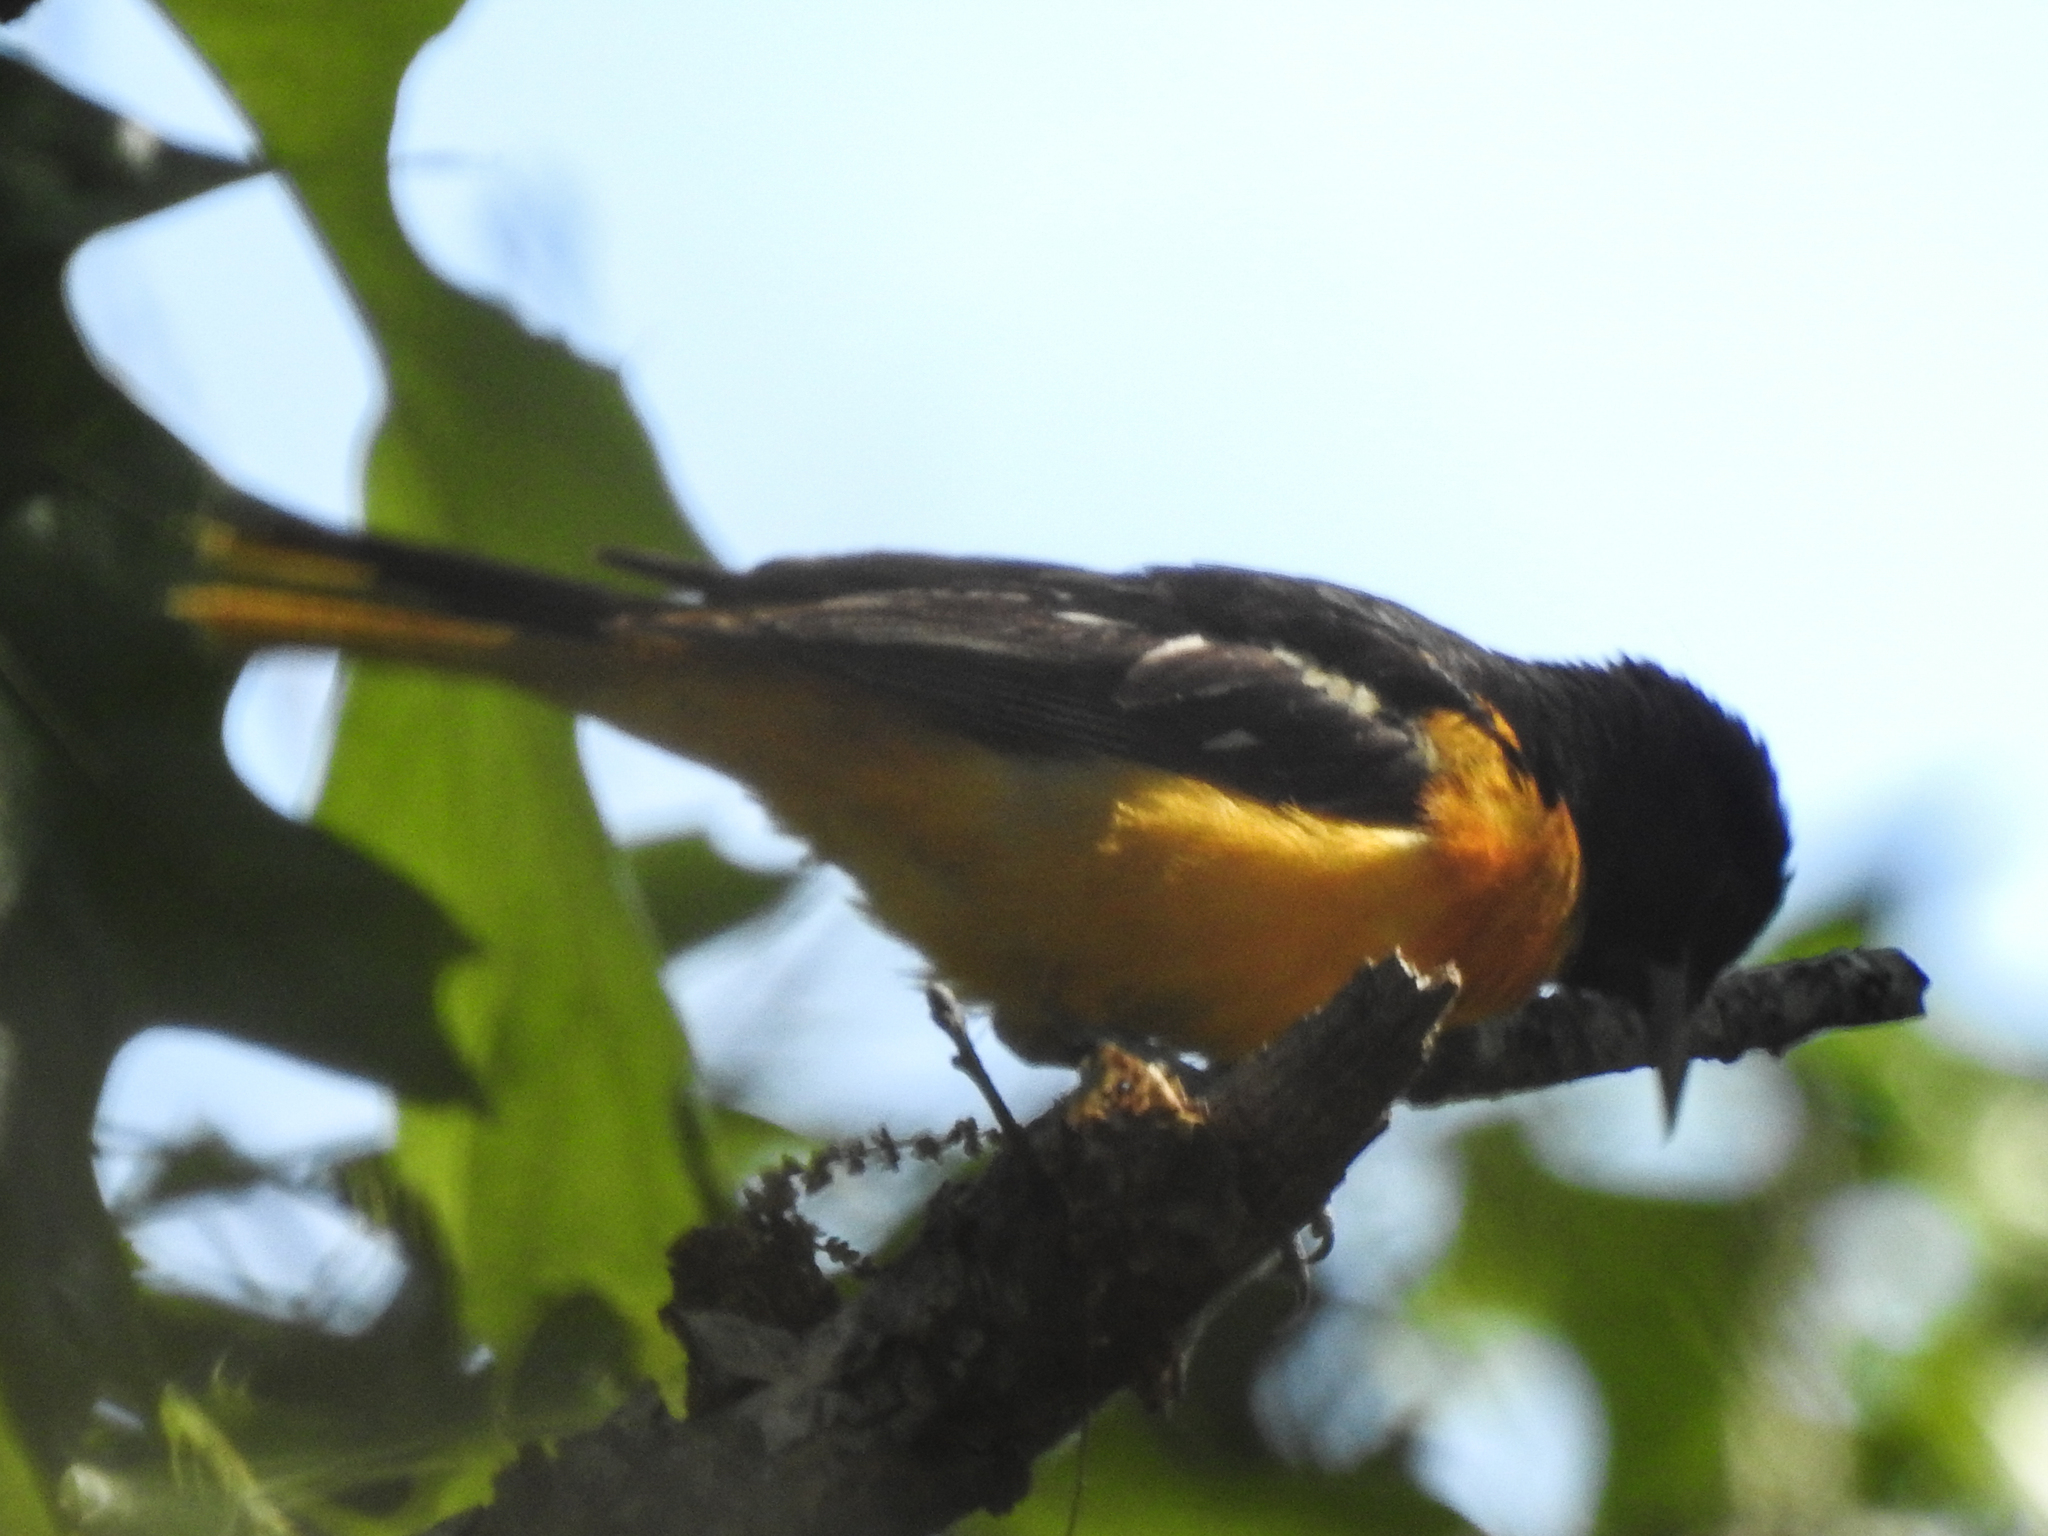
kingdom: Animalia
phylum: Chordata
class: Aves
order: Passeriformes
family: Icteridae
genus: Icterus
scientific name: Icterus galbula
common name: Baltimore oriole
